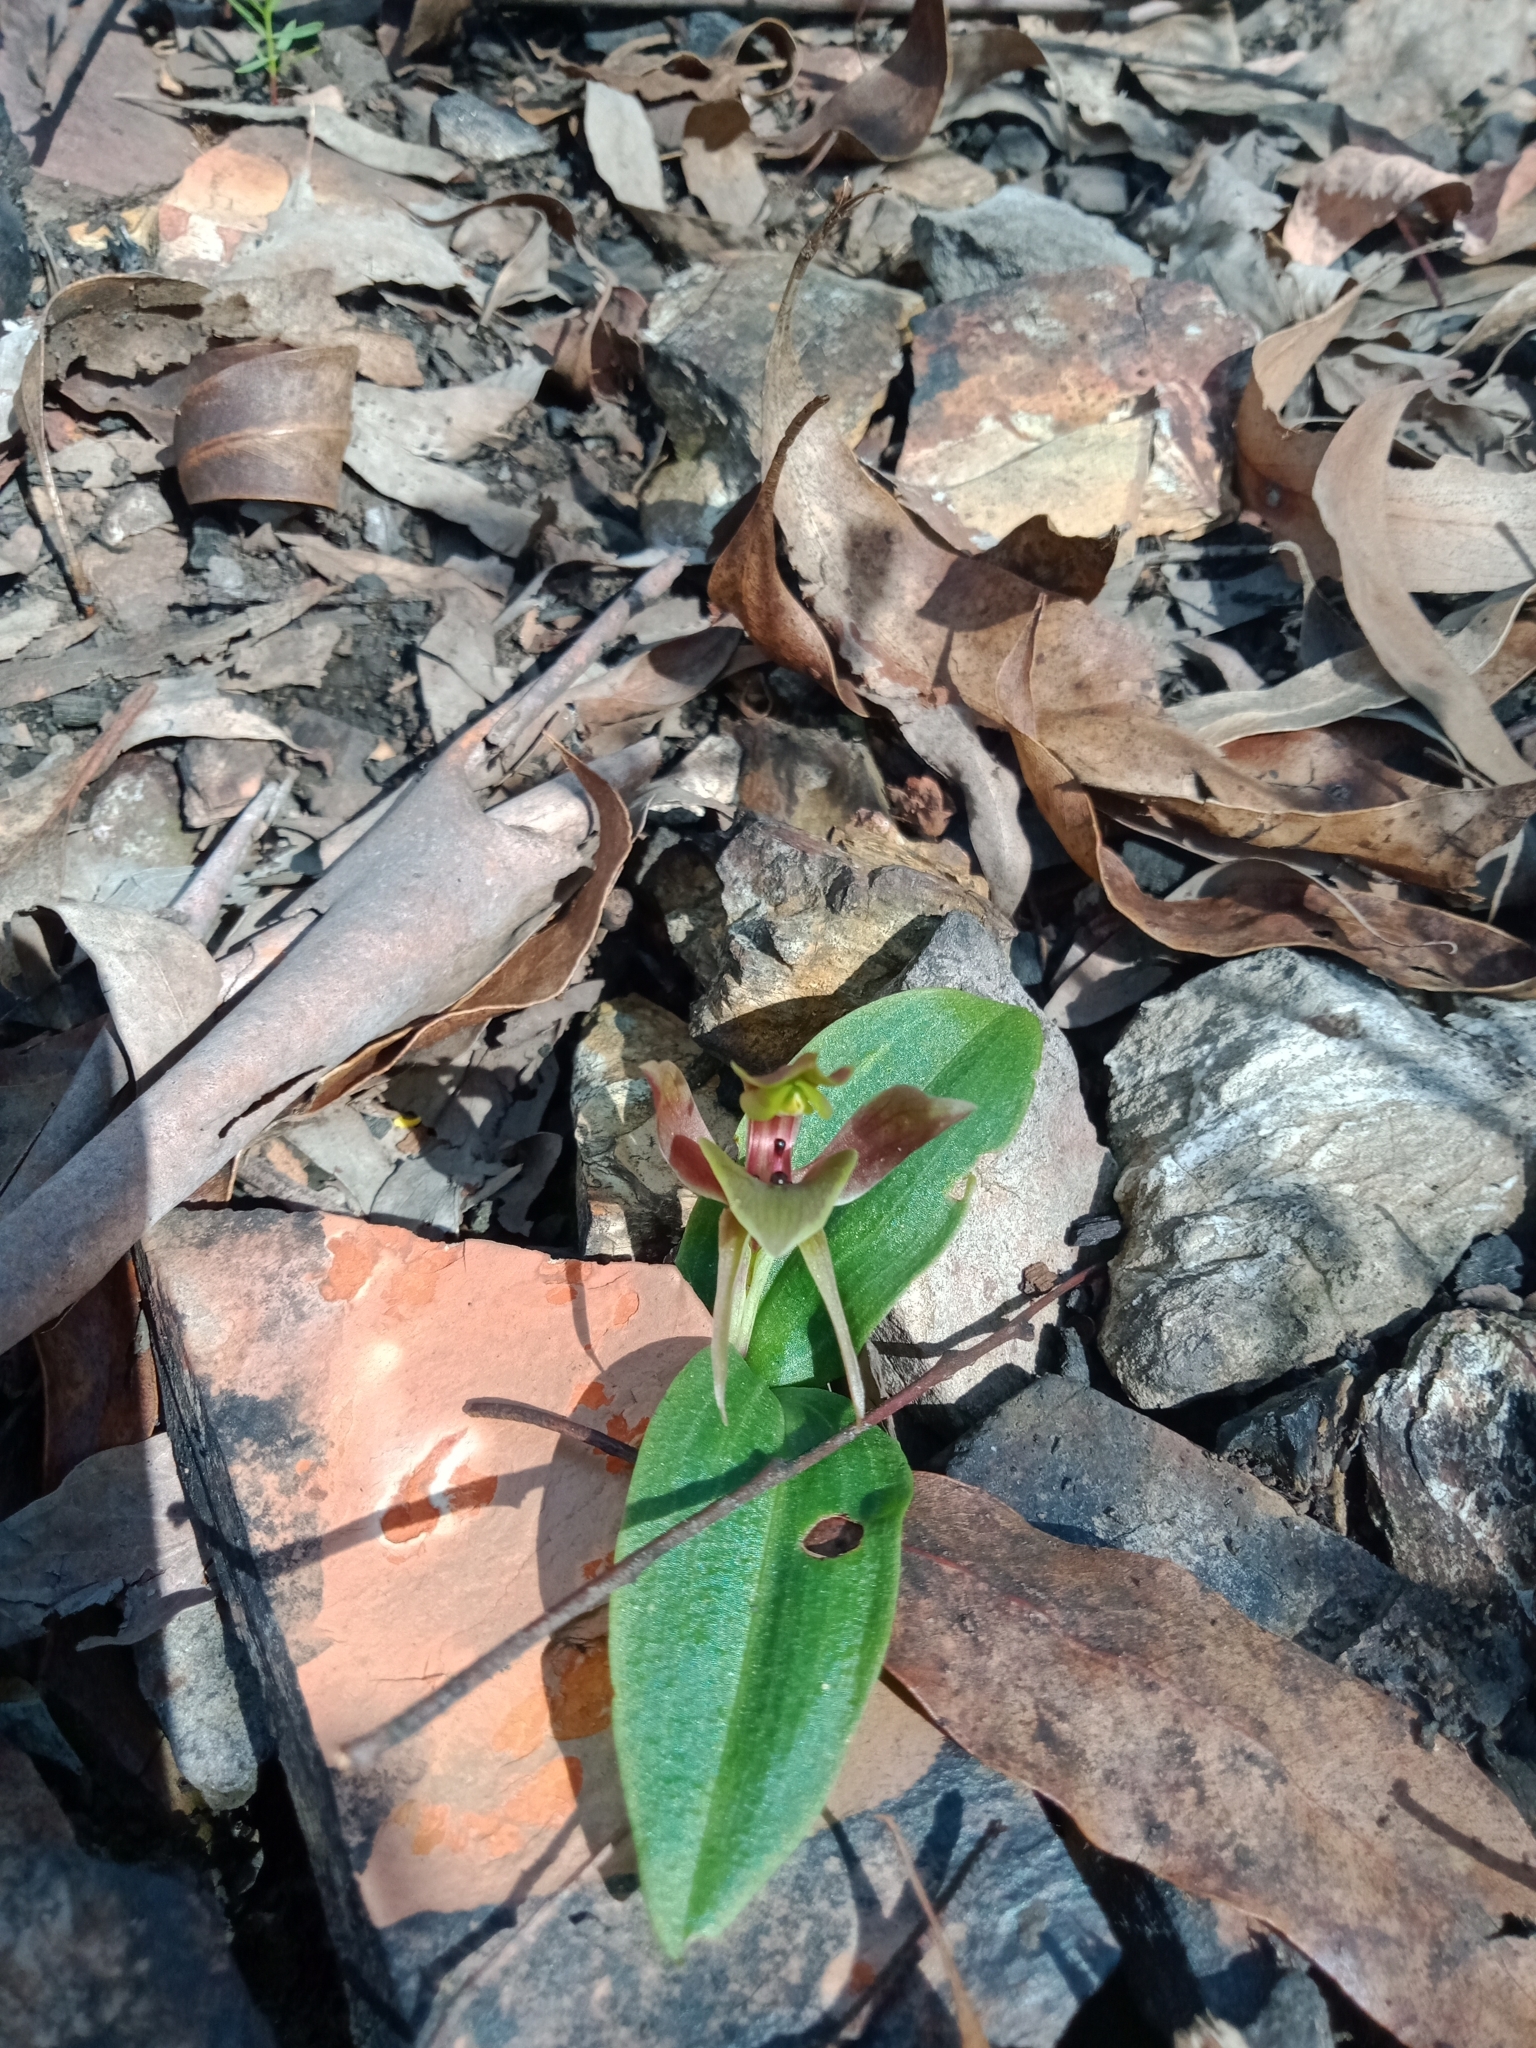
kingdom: Plantae
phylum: Tracheophyta
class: Liliopsida
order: Asparagales
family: Orchidaceae
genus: Chiloglottis
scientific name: Chiloglottis valida
